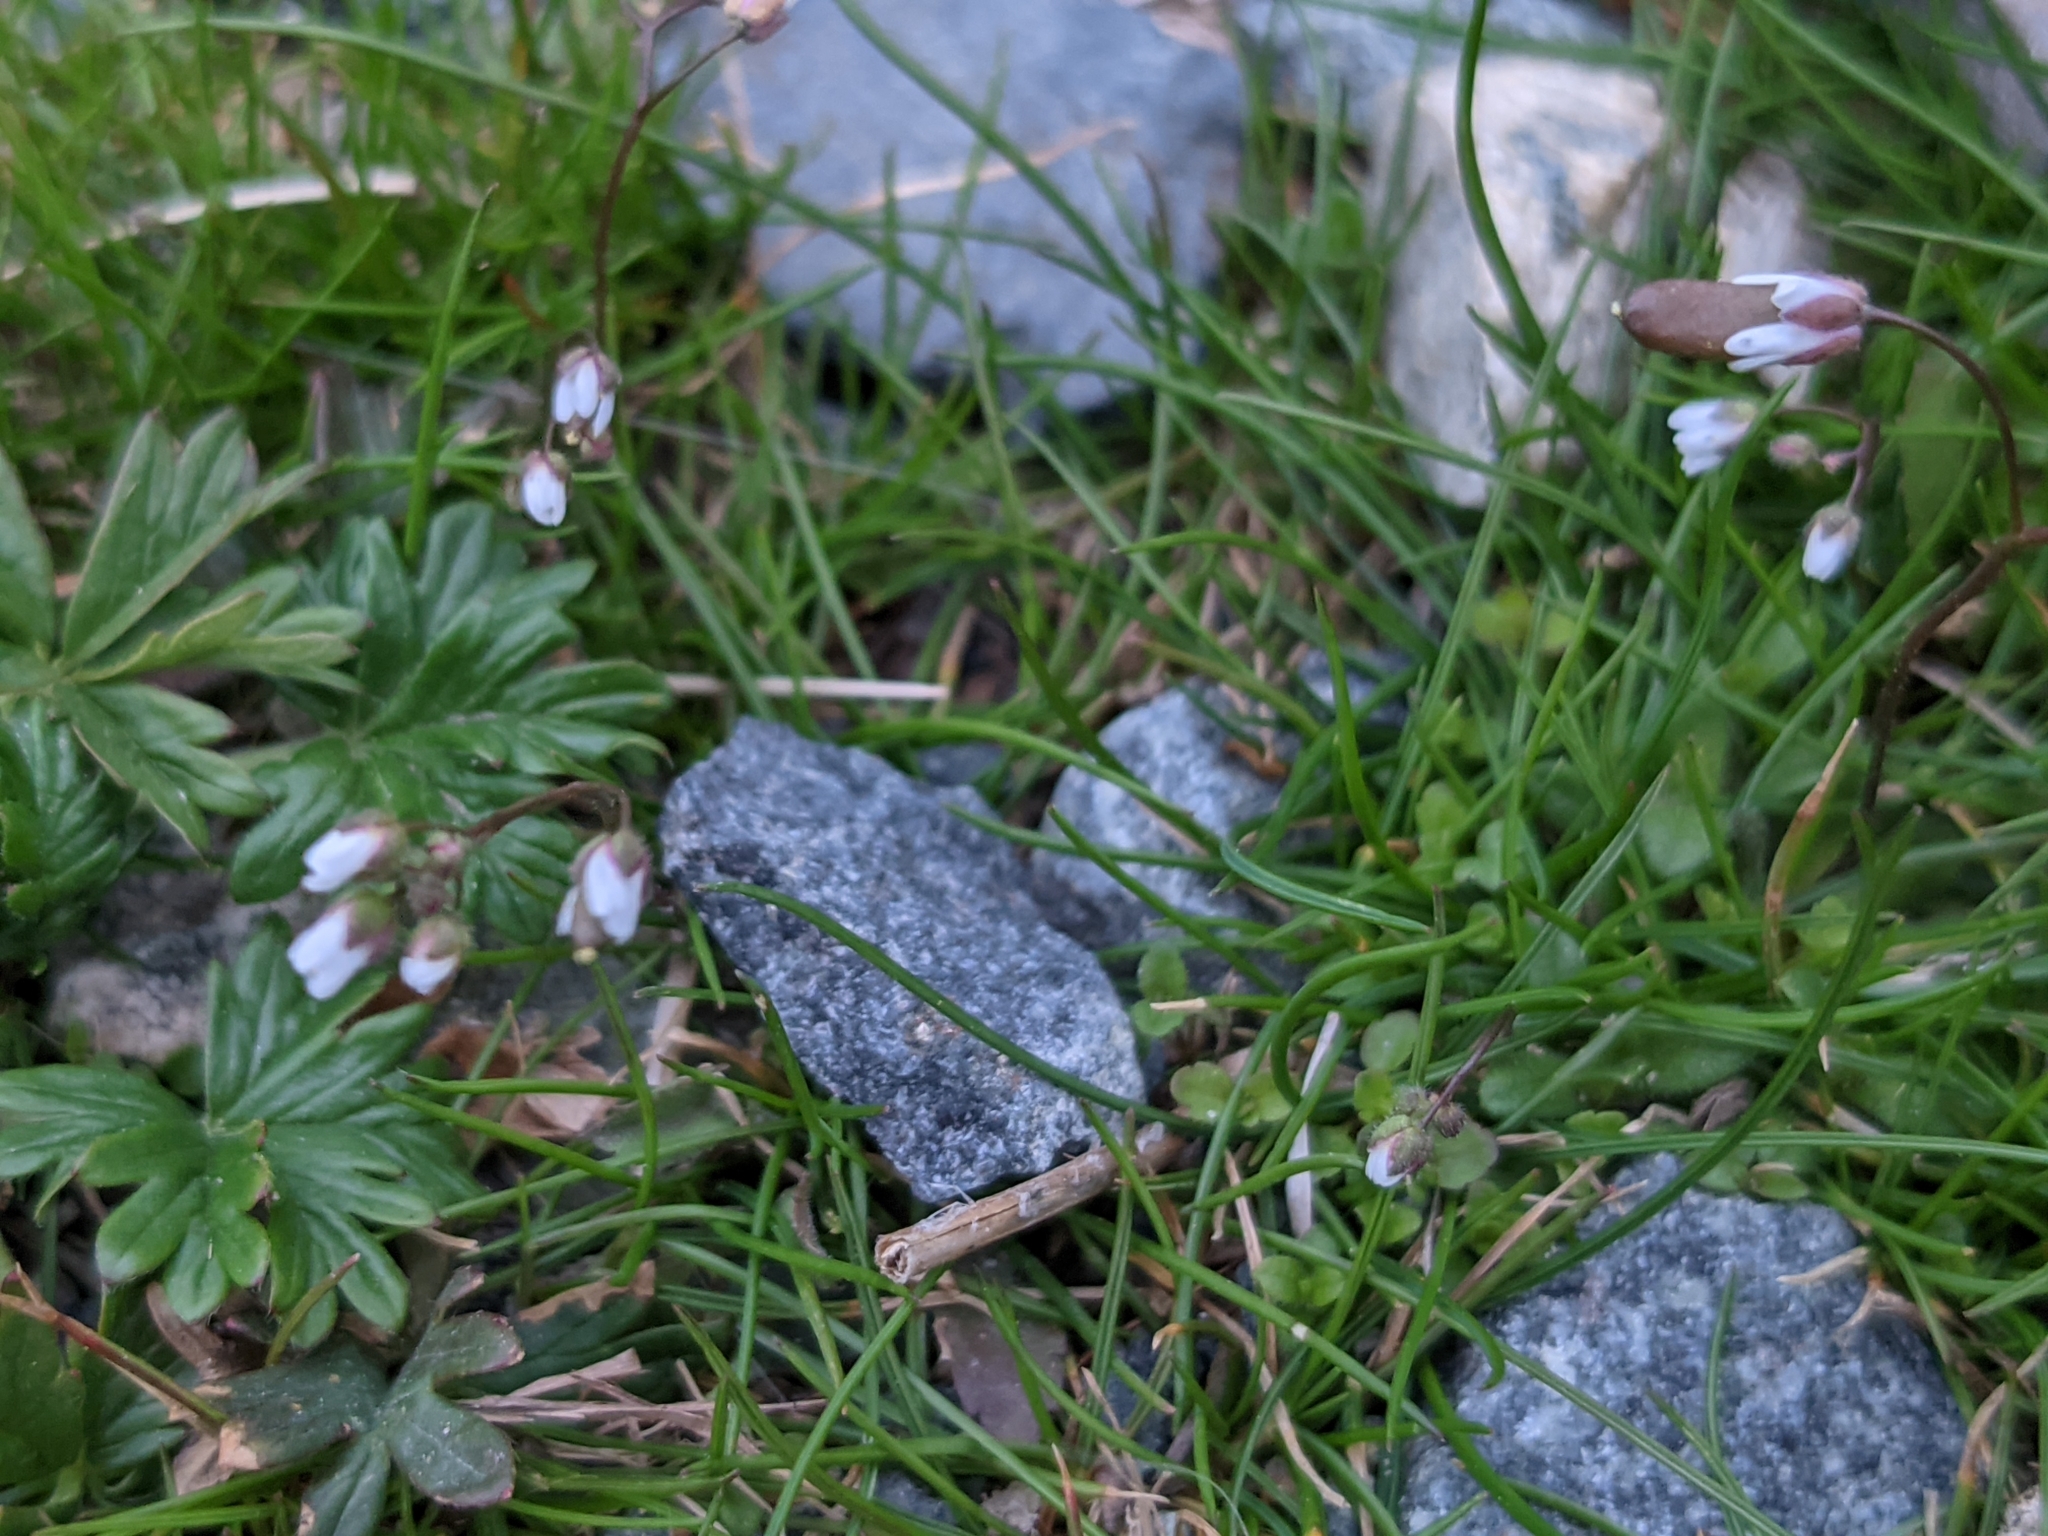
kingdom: Plantae
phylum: Tracheophyta
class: Magnoliopsida
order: Brassicales
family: Brassicaceae
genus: Draba
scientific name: Draba verna
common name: Spring draba
